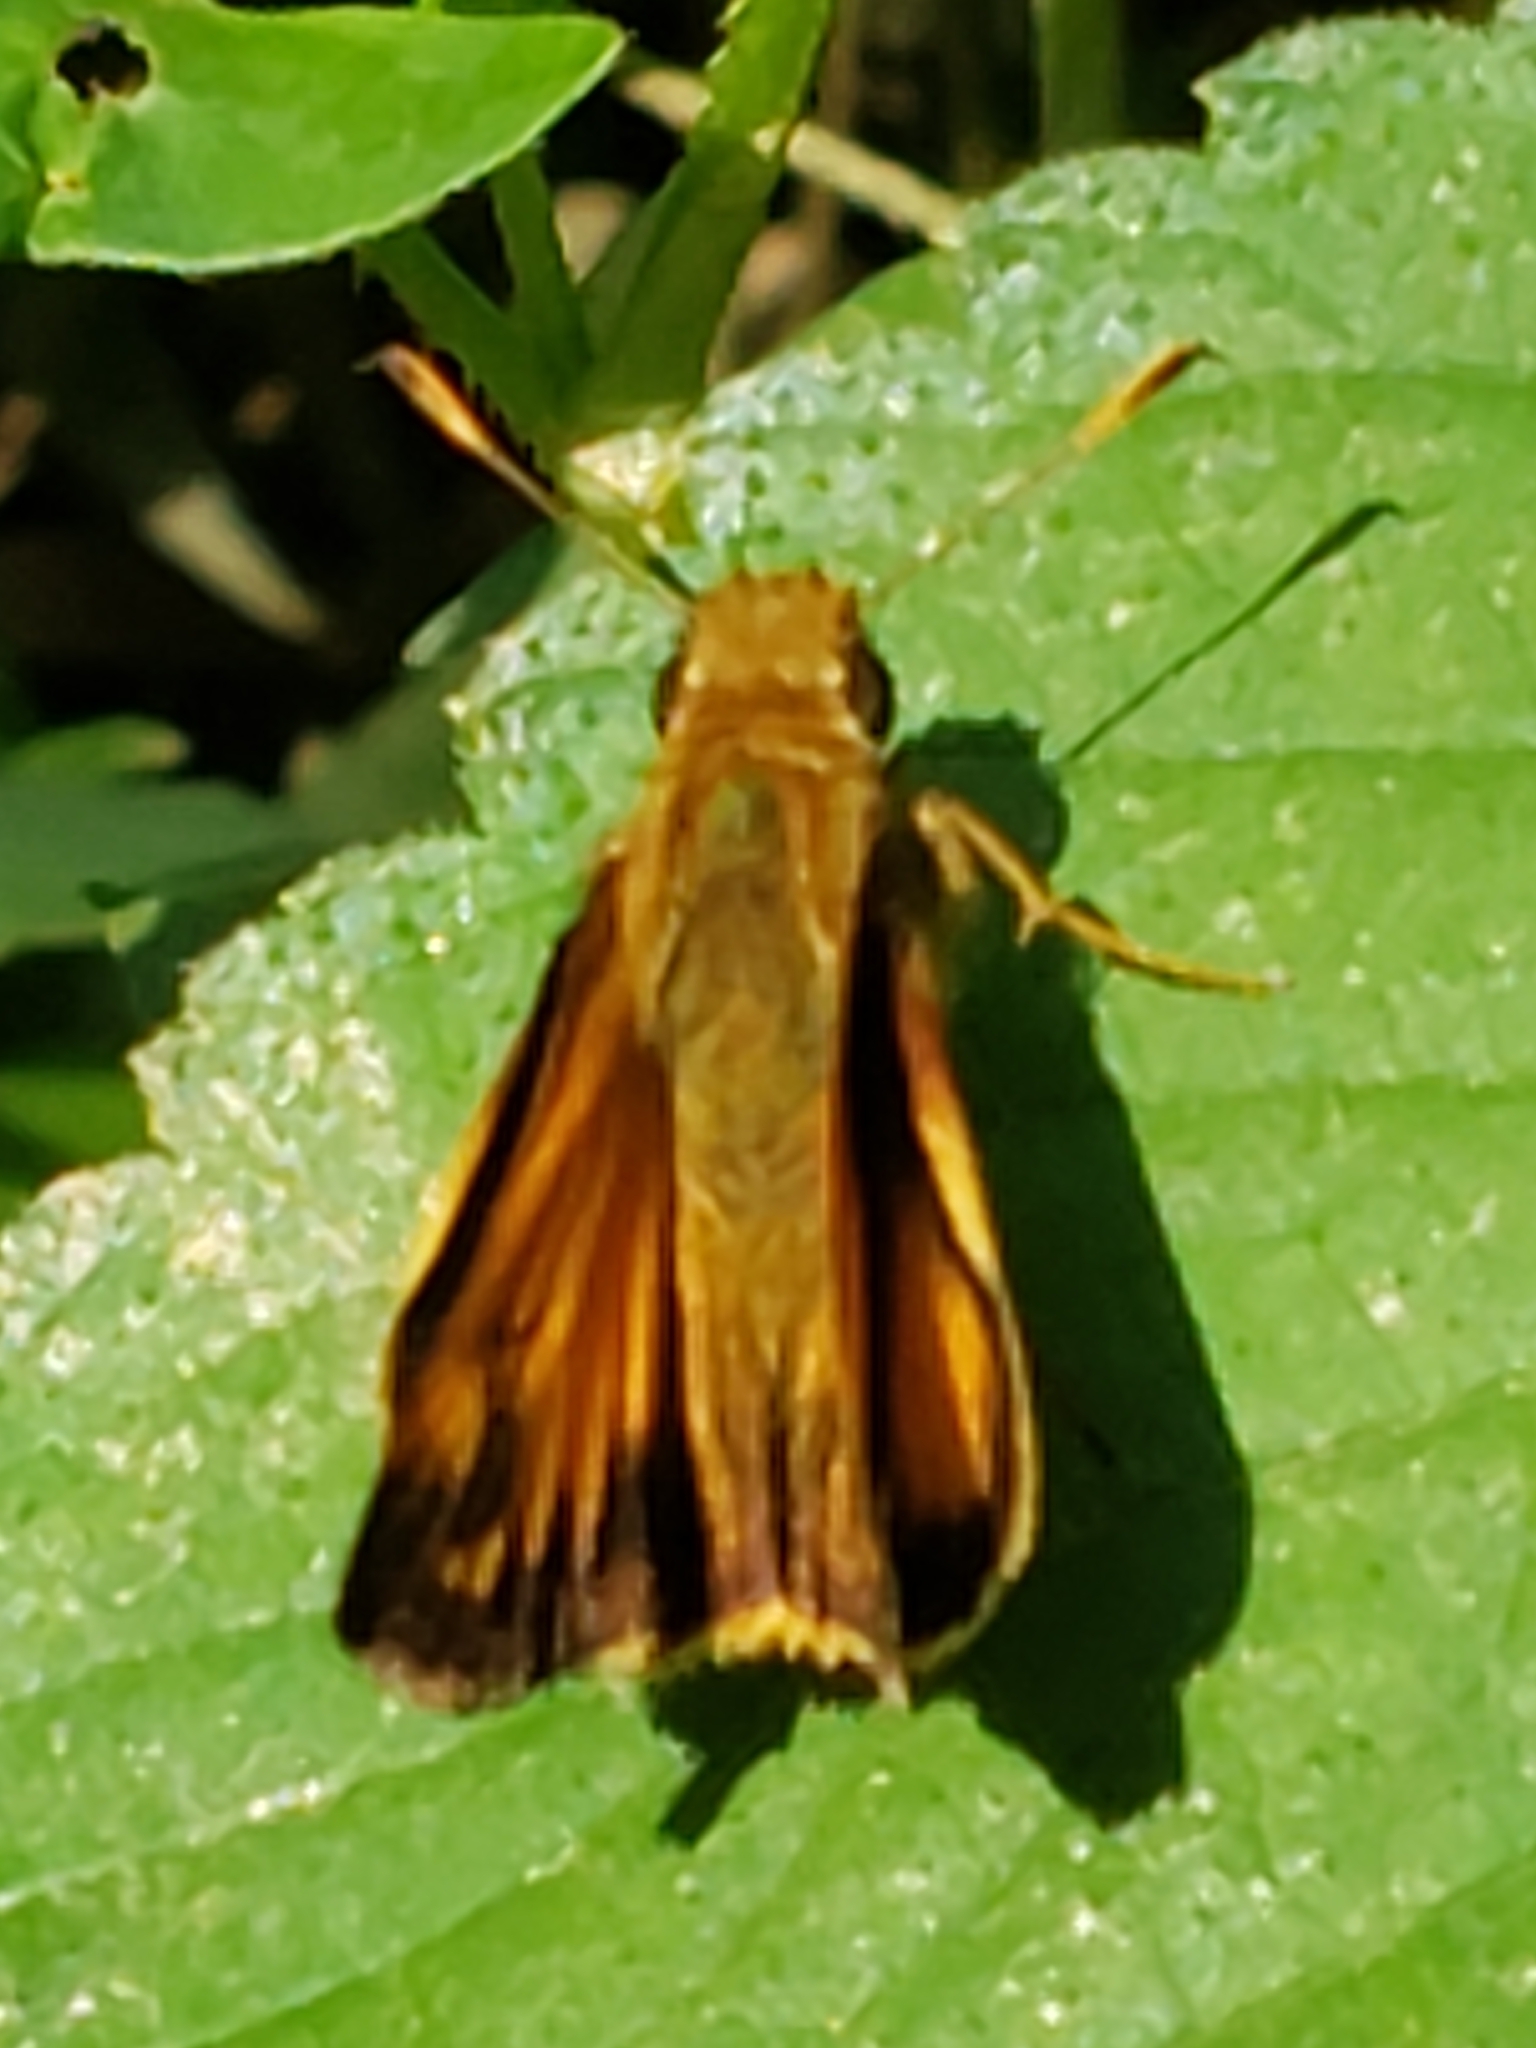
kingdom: Animalia
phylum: Arthropoda
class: Insecta
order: Lepidoptera
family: Hesperiidae
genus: Lon
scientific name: Lon zabulon
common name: Zabulon skipper
